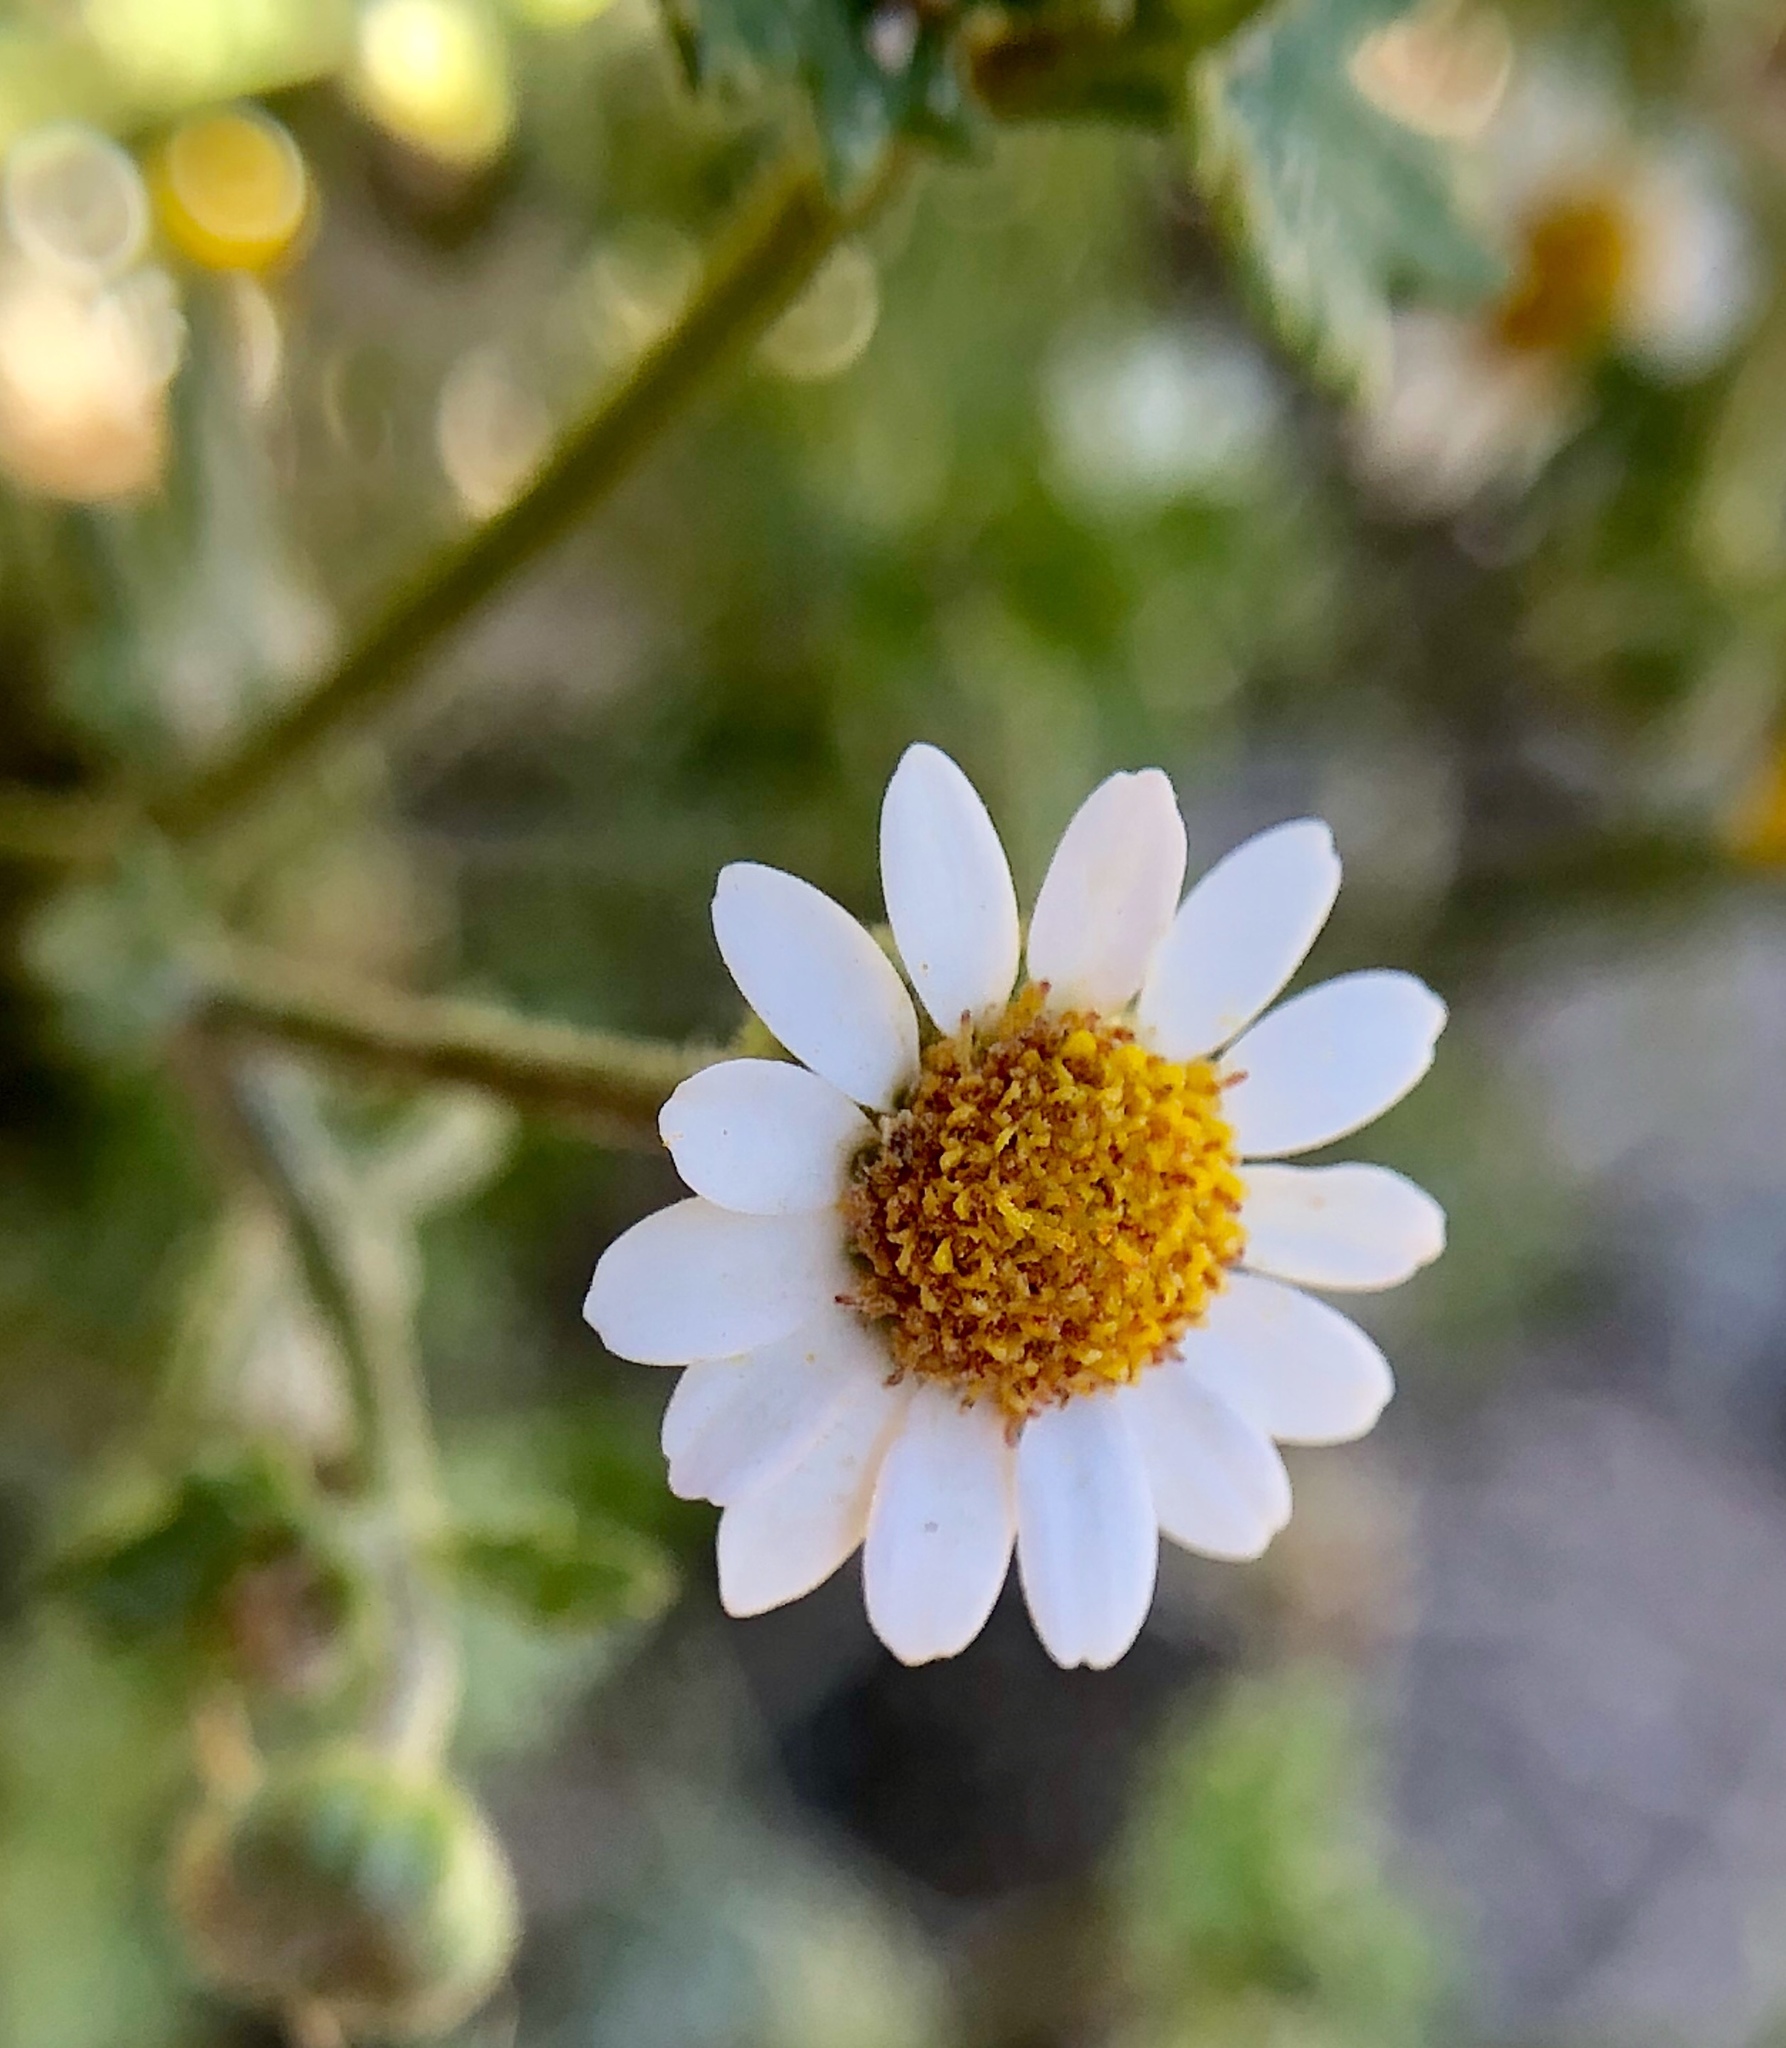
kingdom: Plantae
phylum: Tracheophyta
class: Magnoliopsida
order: Asterales
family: Asteraceae
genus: Laphamia
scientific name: Laphamia emoryi
